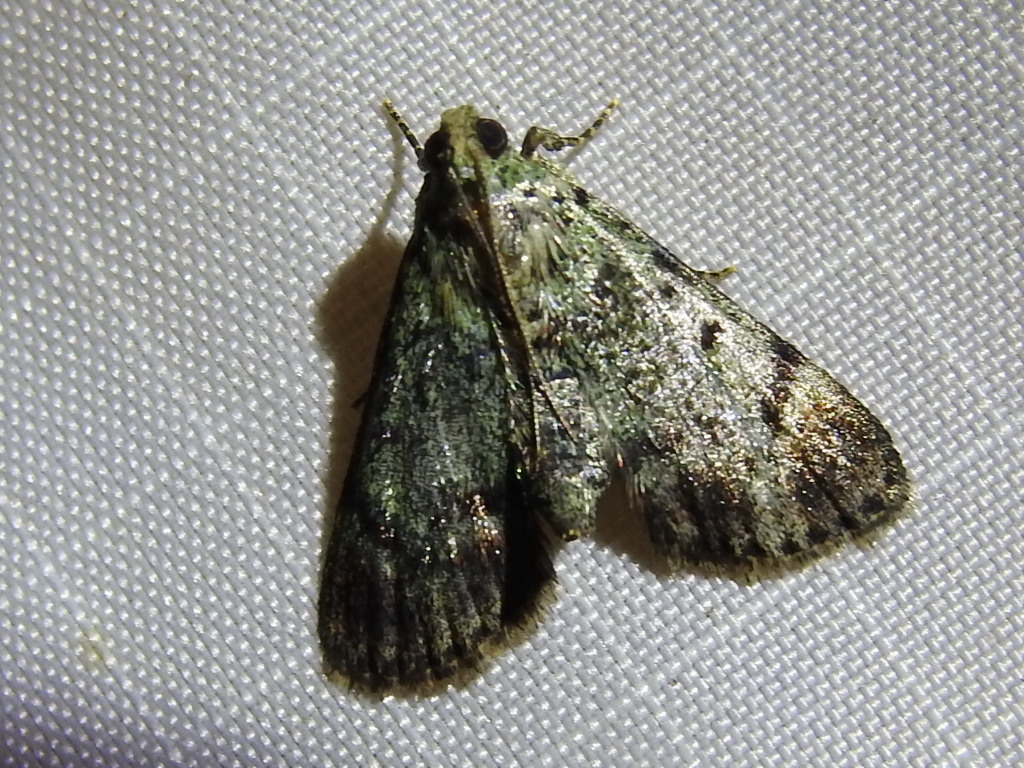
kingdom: Animalia
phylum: Arthropoda
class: Insecta
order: Lepidoptera
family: Pyralidae
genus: Epipaschia
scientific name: Epipaschia superatalis
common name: Dimorphic macalla moth
